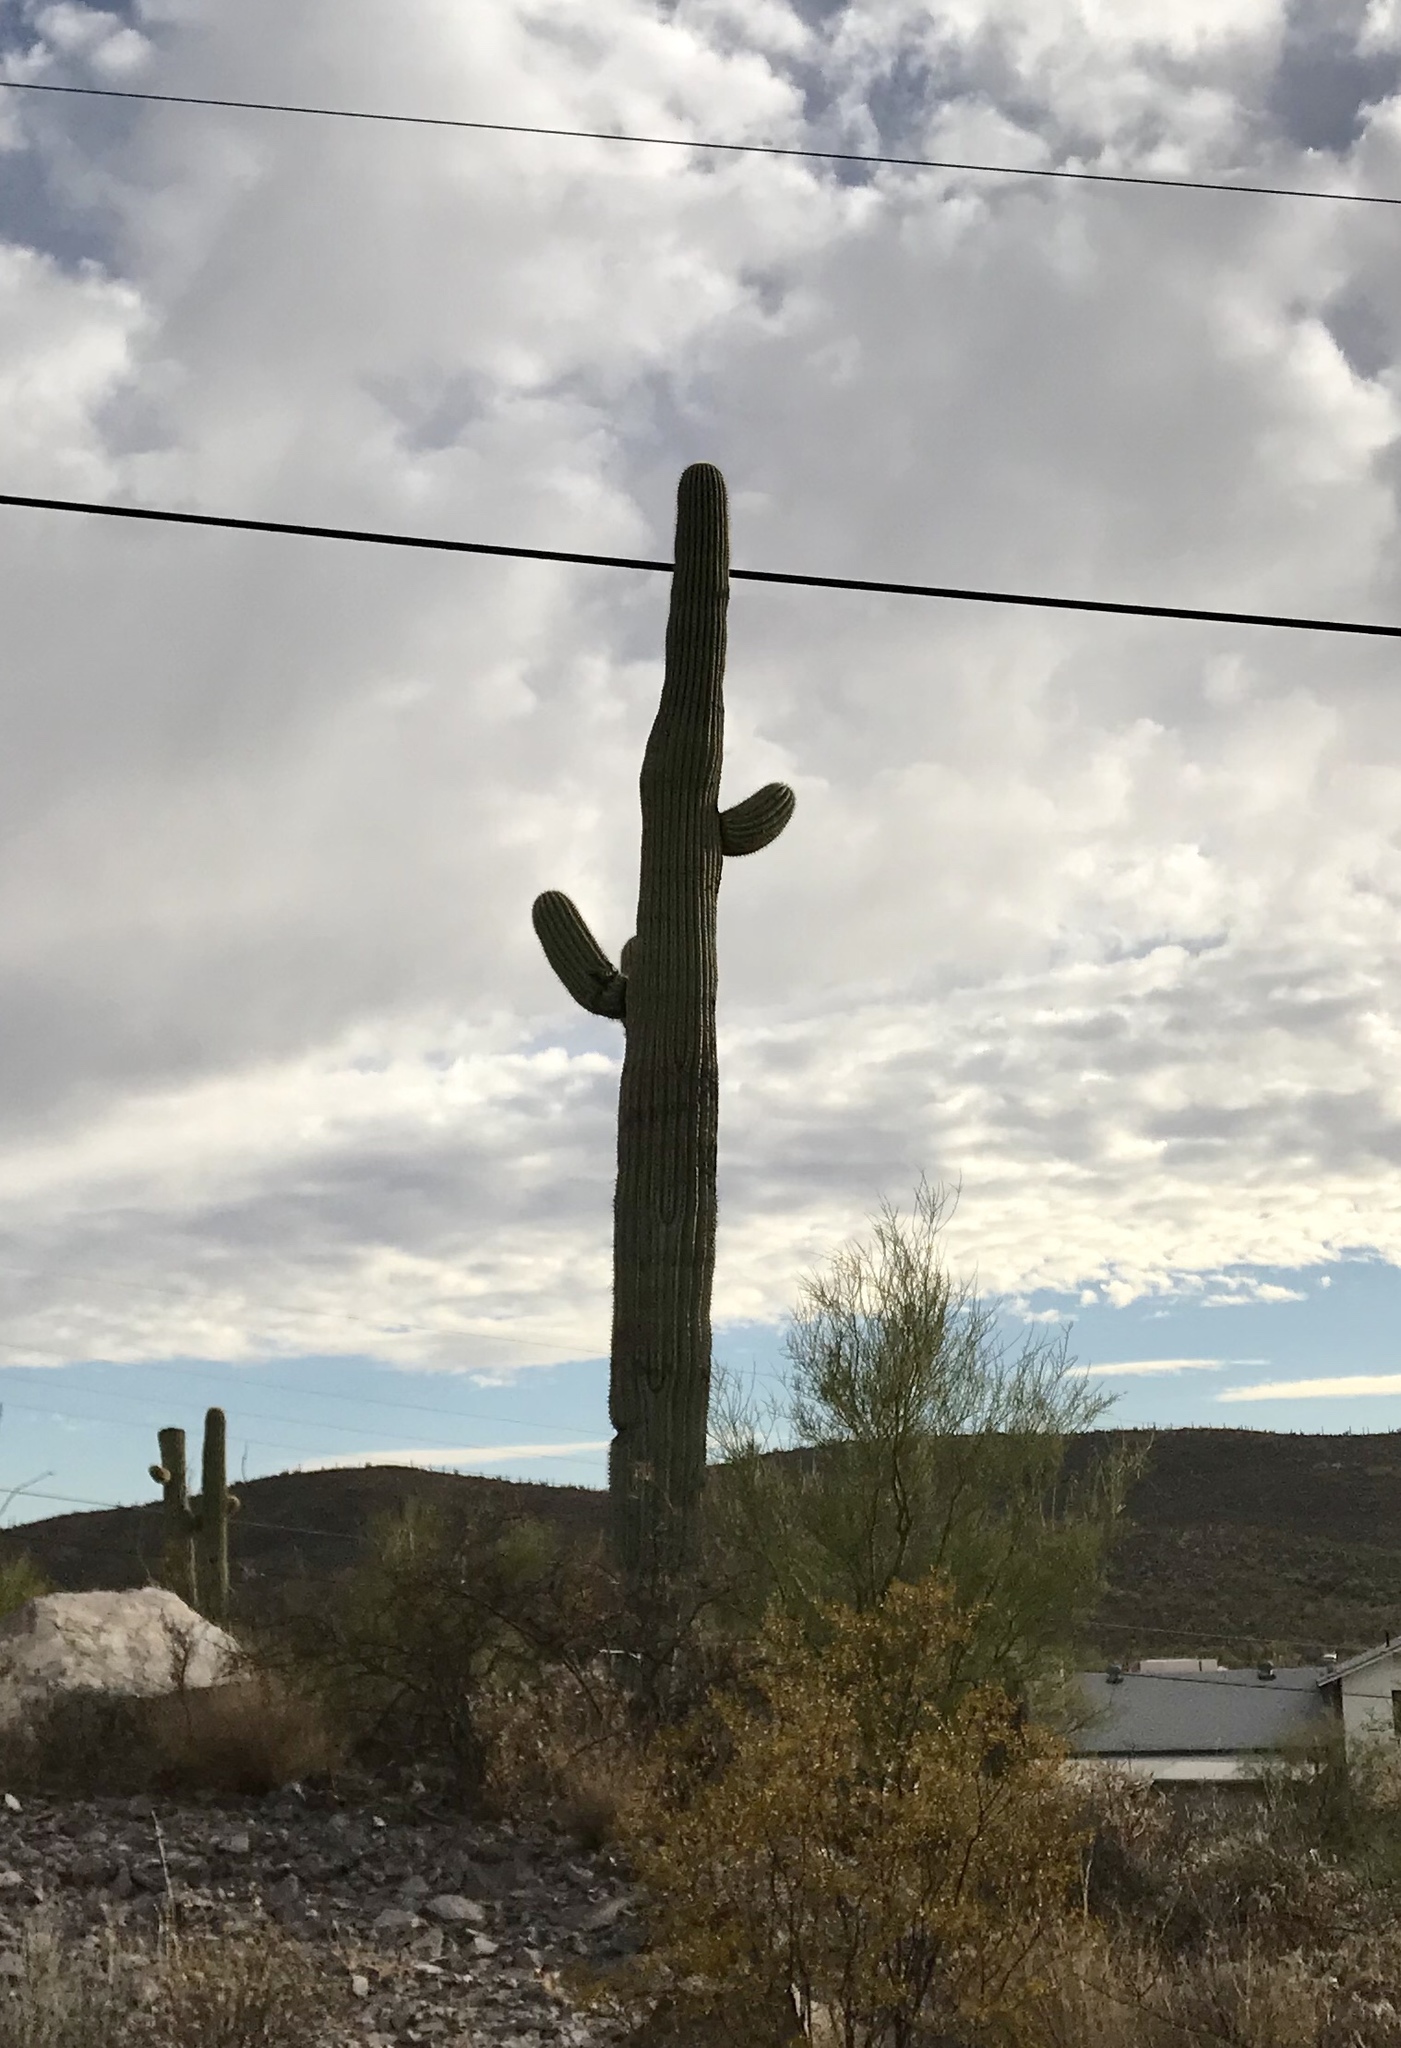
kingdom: Plantae
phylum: Tracheophyta
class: Magnoliopsida
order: Caryophyllales
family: Cactaceae
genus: Carnegiea
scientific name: Carnegiea gigantea
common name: Saguaro
